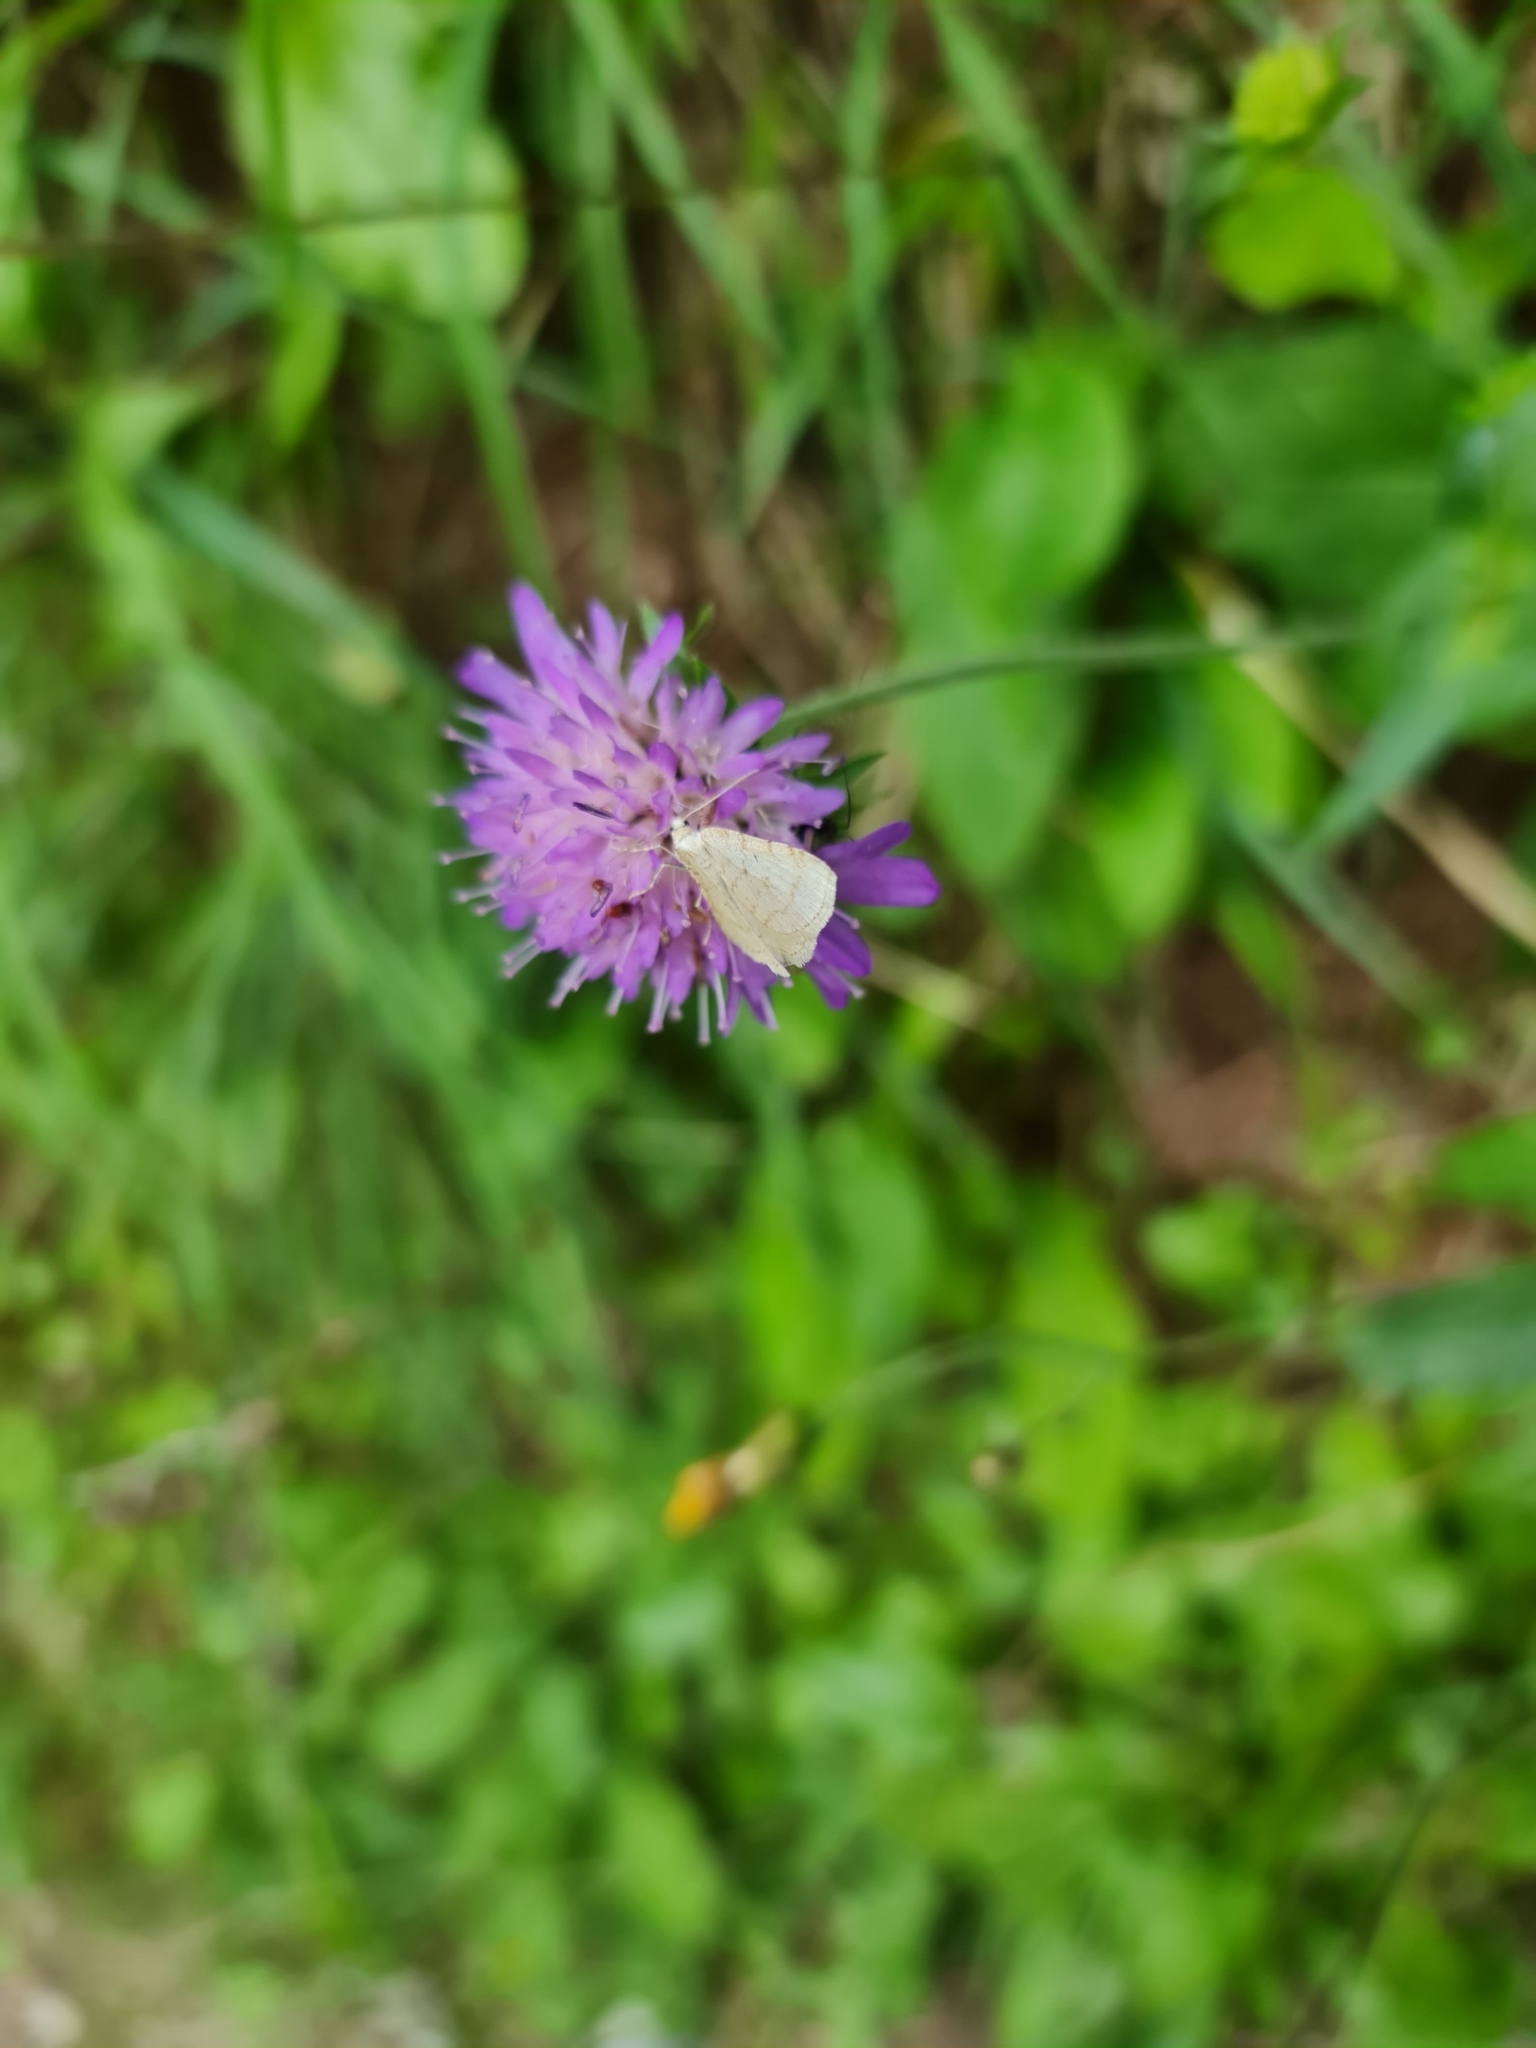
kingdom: Animalia
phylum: Arthropoda
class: Insecta
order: Lepidoptera
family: Geometridae
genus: Perizoma
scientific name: Perizoma verberata
